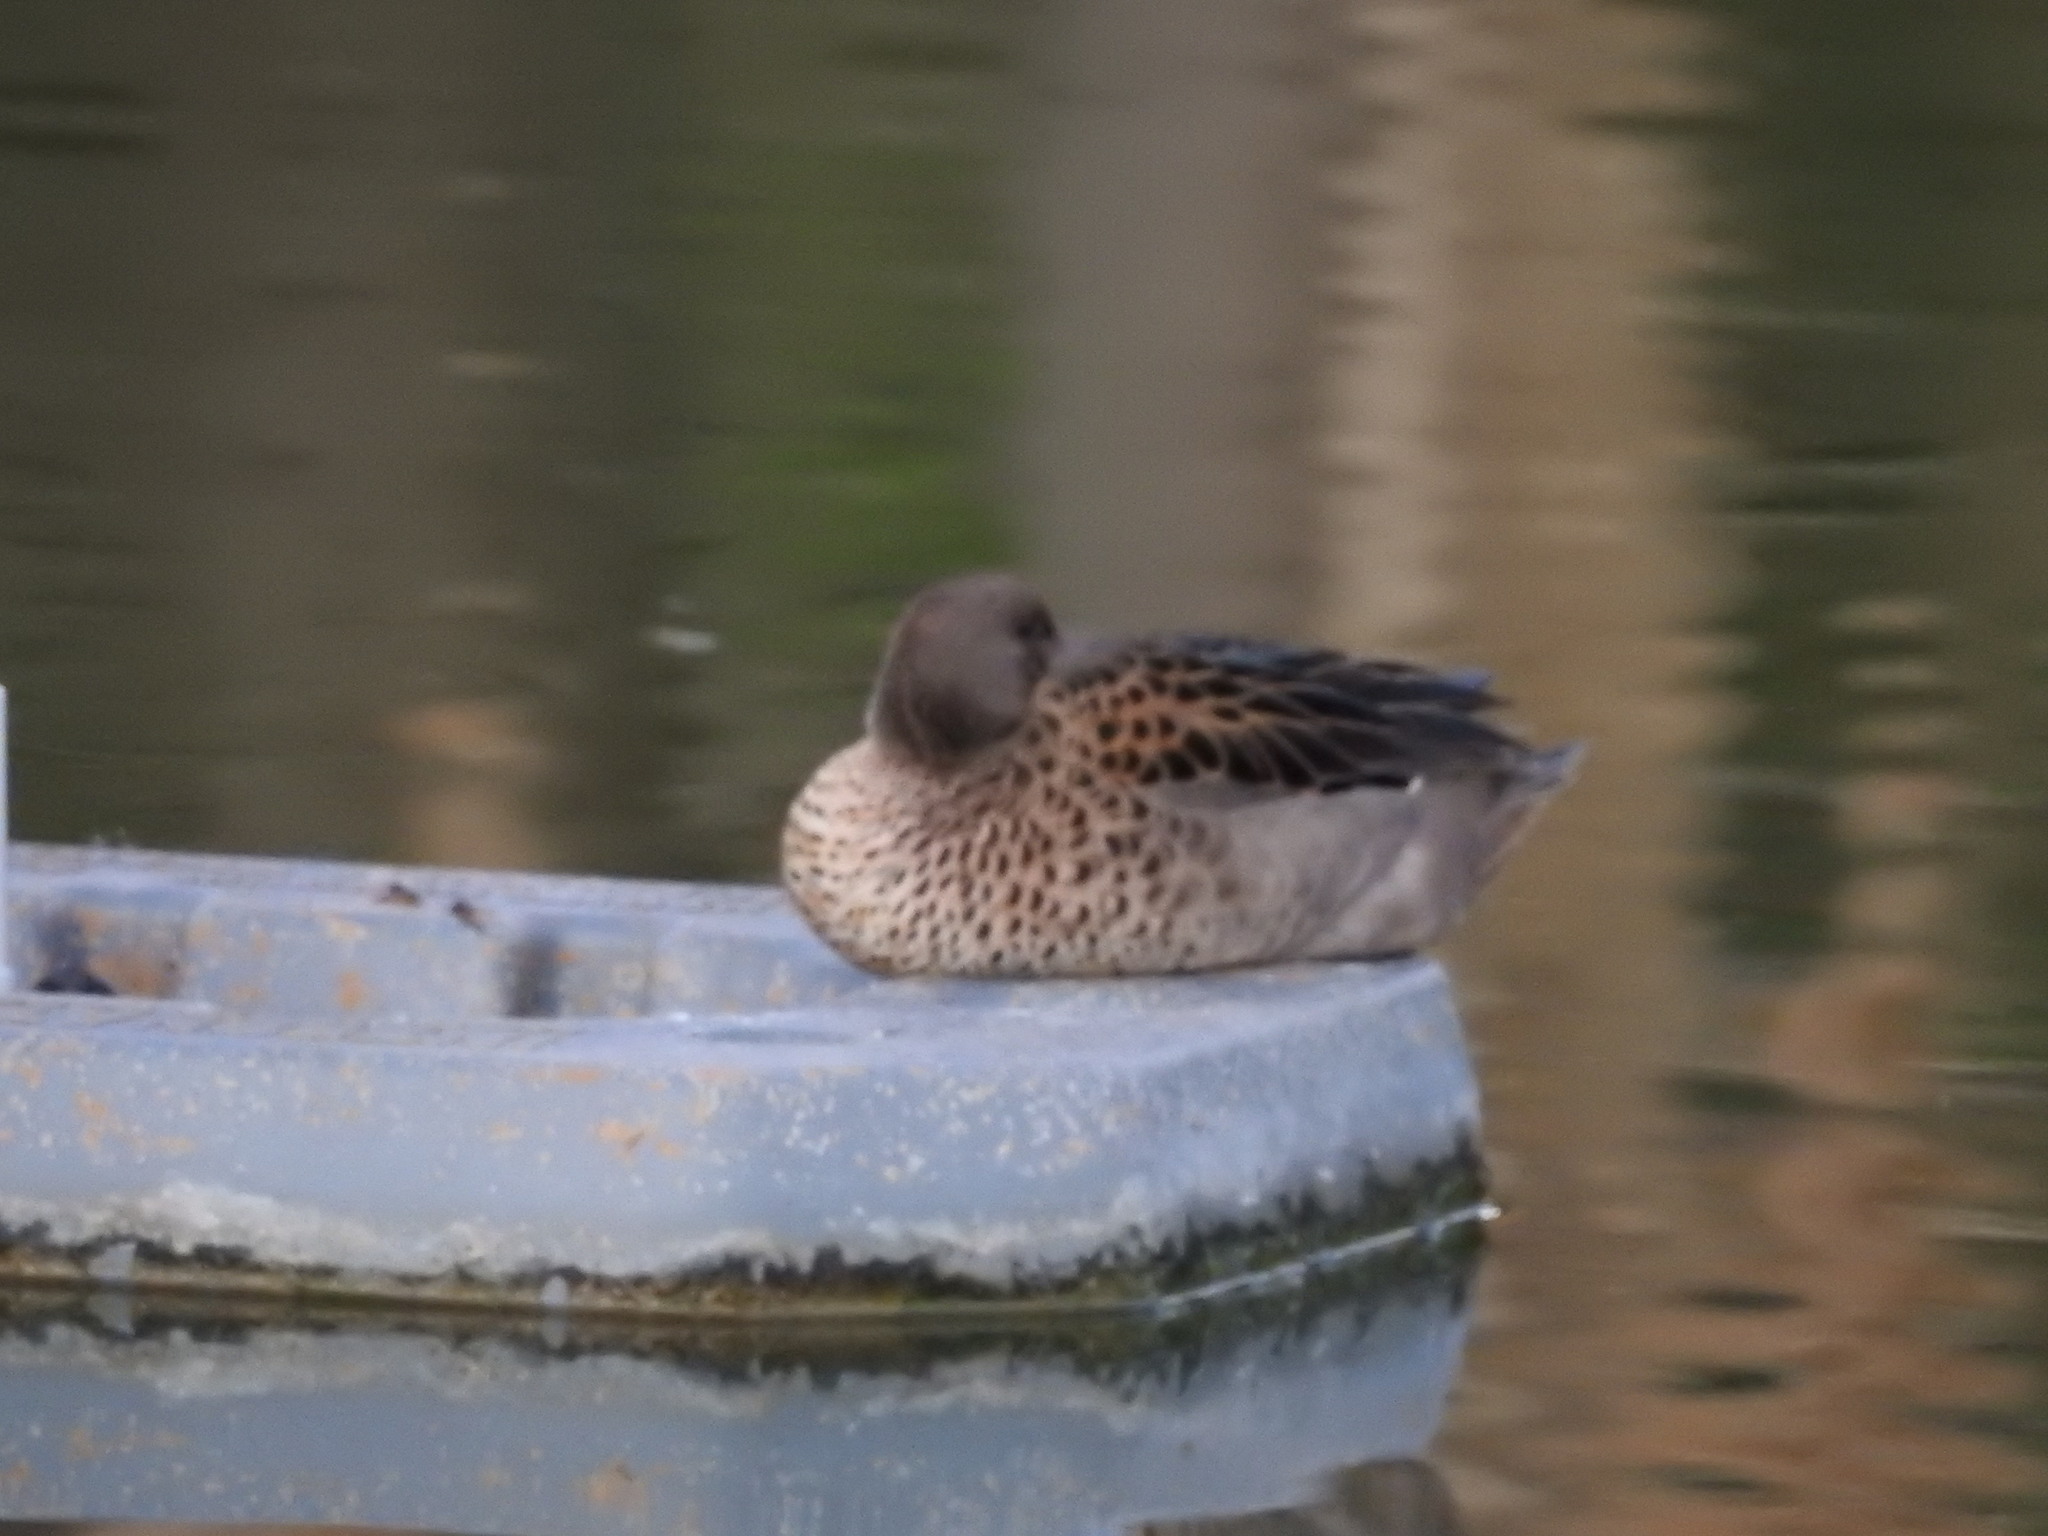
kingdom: Animalia
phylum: Chordata
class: Aves
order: Anseriformes
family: Anatidae
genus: Anas
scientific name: Anas flavirostris
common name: Yellow-billed teal
